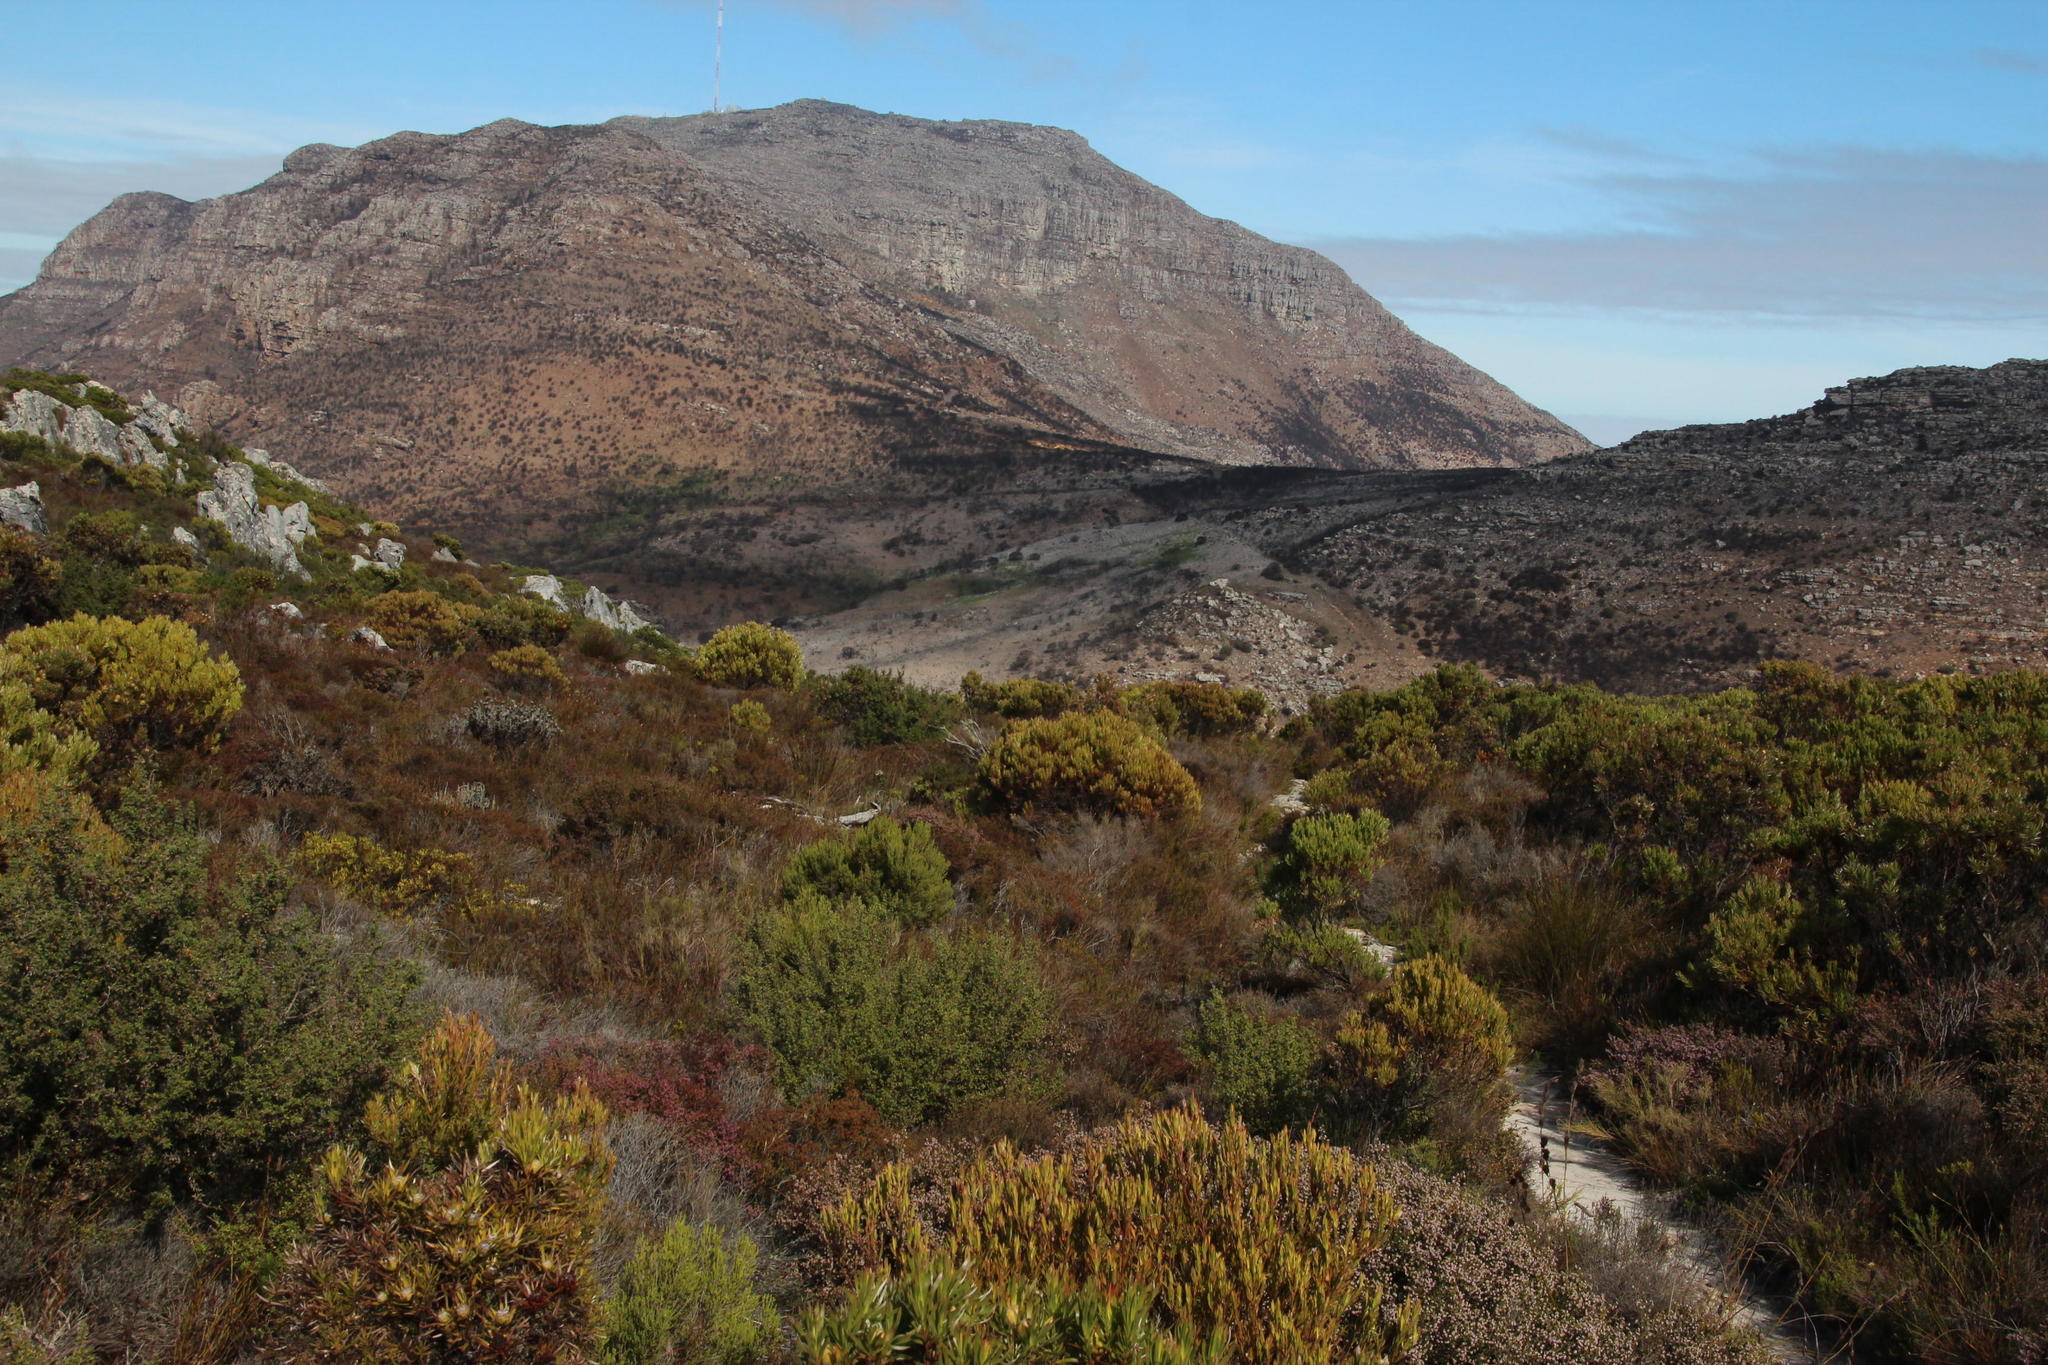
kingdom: Plantae
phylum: Tracheophyta
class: Magnoliopsida
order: Proteales
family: Proteaceae
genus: Leucadendron
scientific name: Leucadendron xanthoconus
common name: Sickle-leaf conebush
